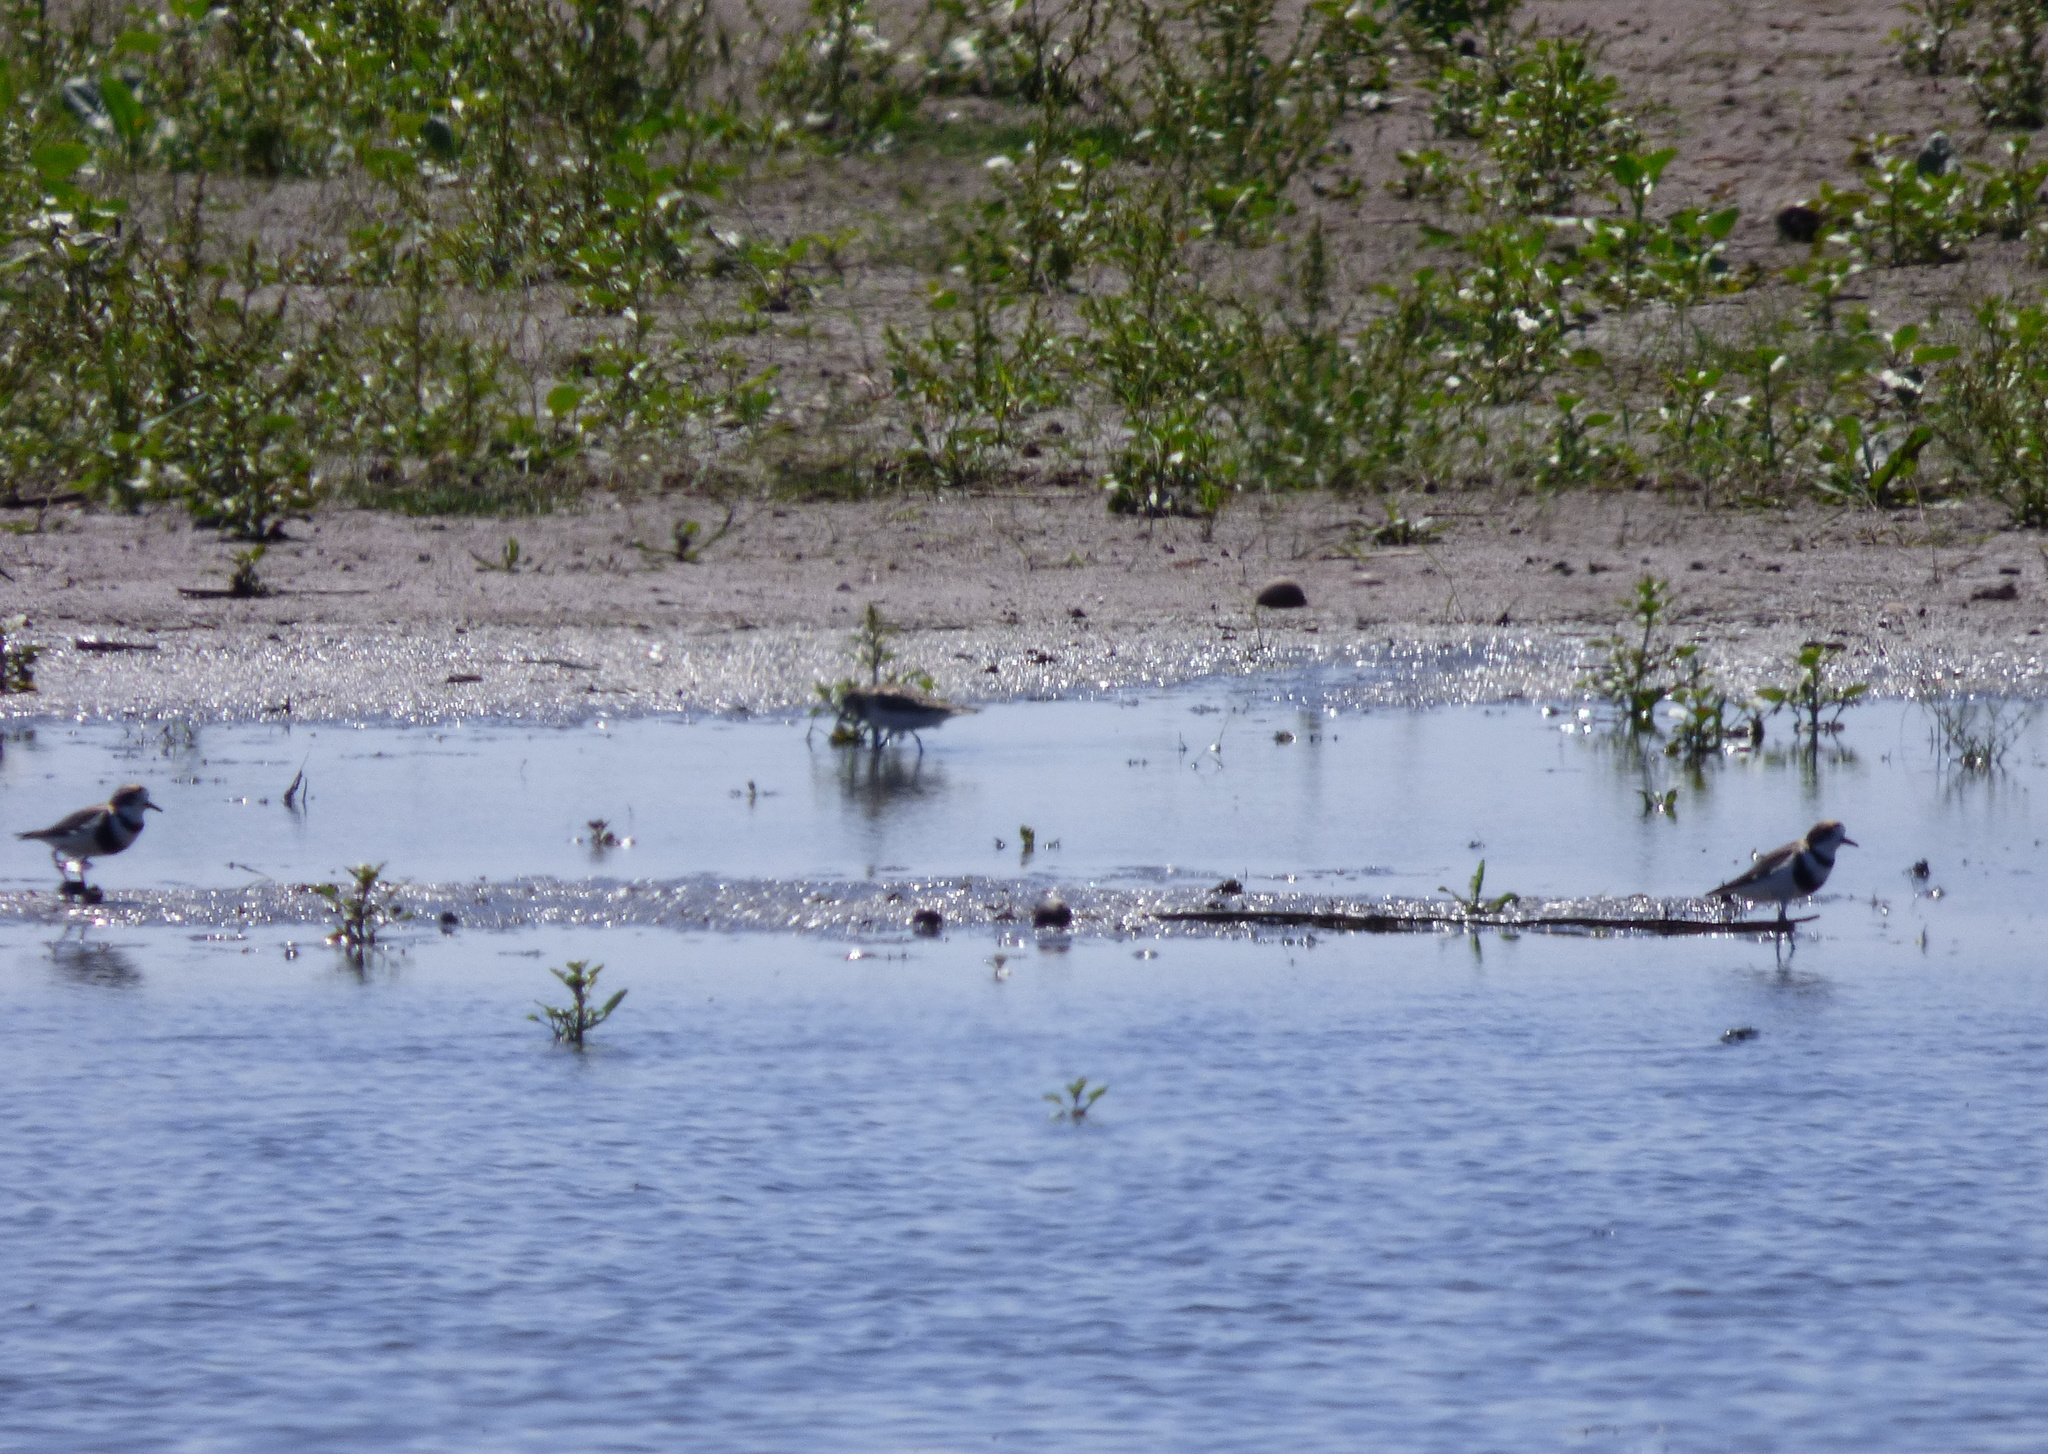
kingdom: Animalia
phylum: Chordata
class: Aves
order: Charadriiformes
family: Charadriidae
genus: Anarhynchus
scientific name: Anarhynchus
